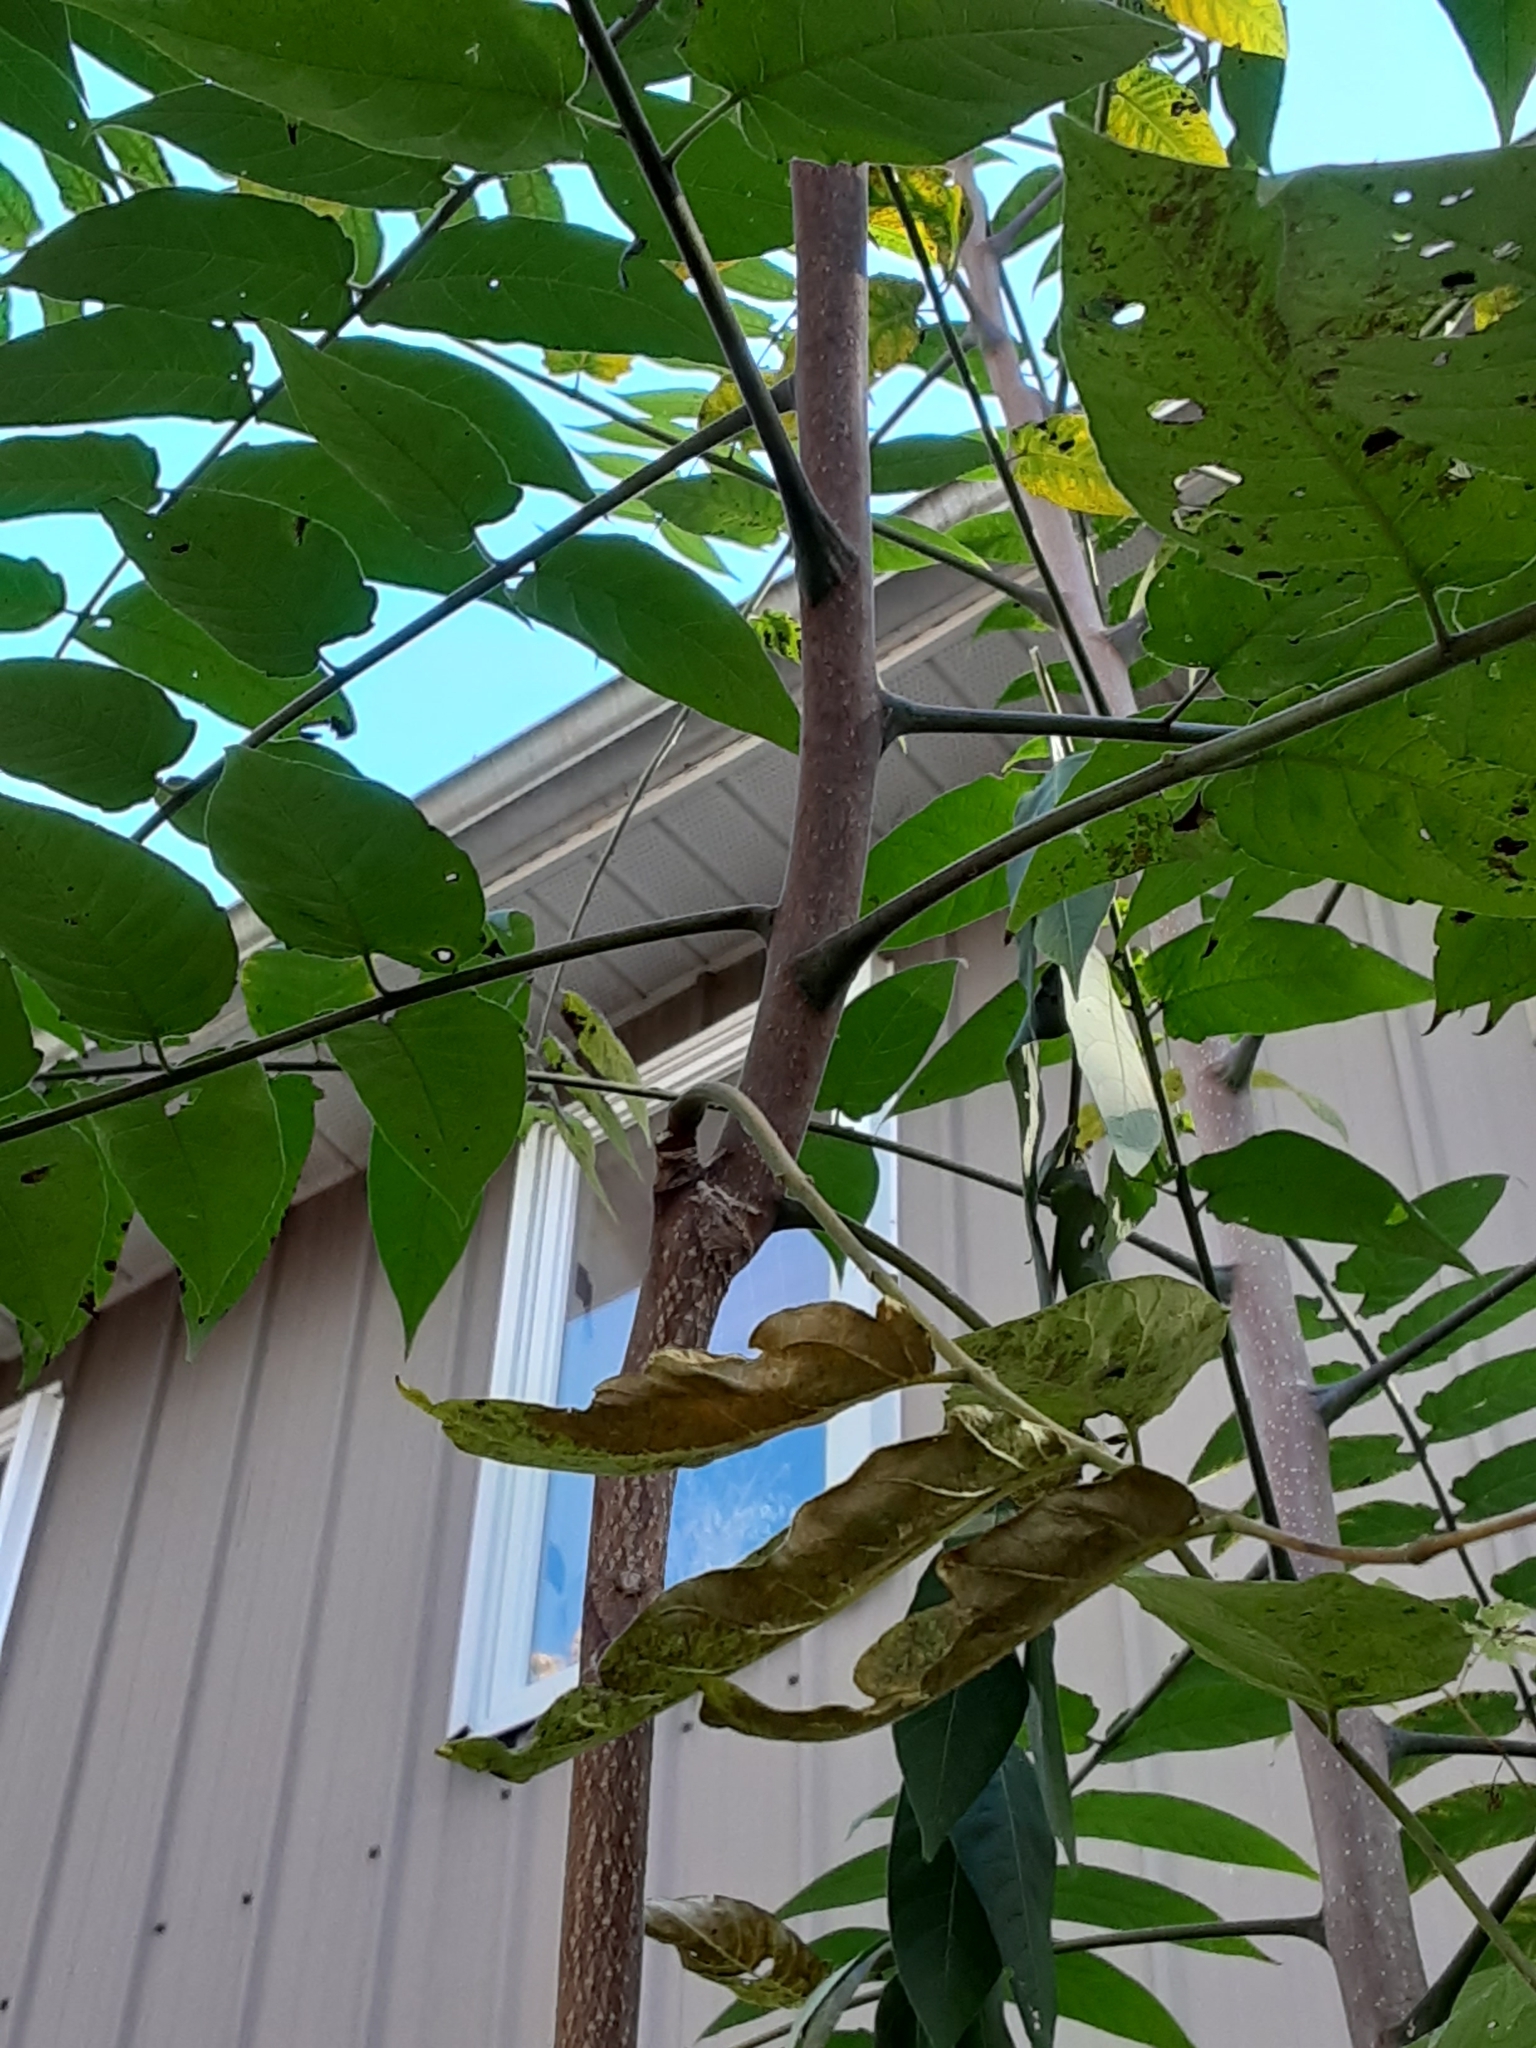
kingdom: Plantae
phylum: Tracheophyta
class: Magnoliopsida
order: Sapindales
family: Simaroubaceae
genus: Ailanthus
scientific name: Ailanthus altissima
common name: Tree-of-heaven
